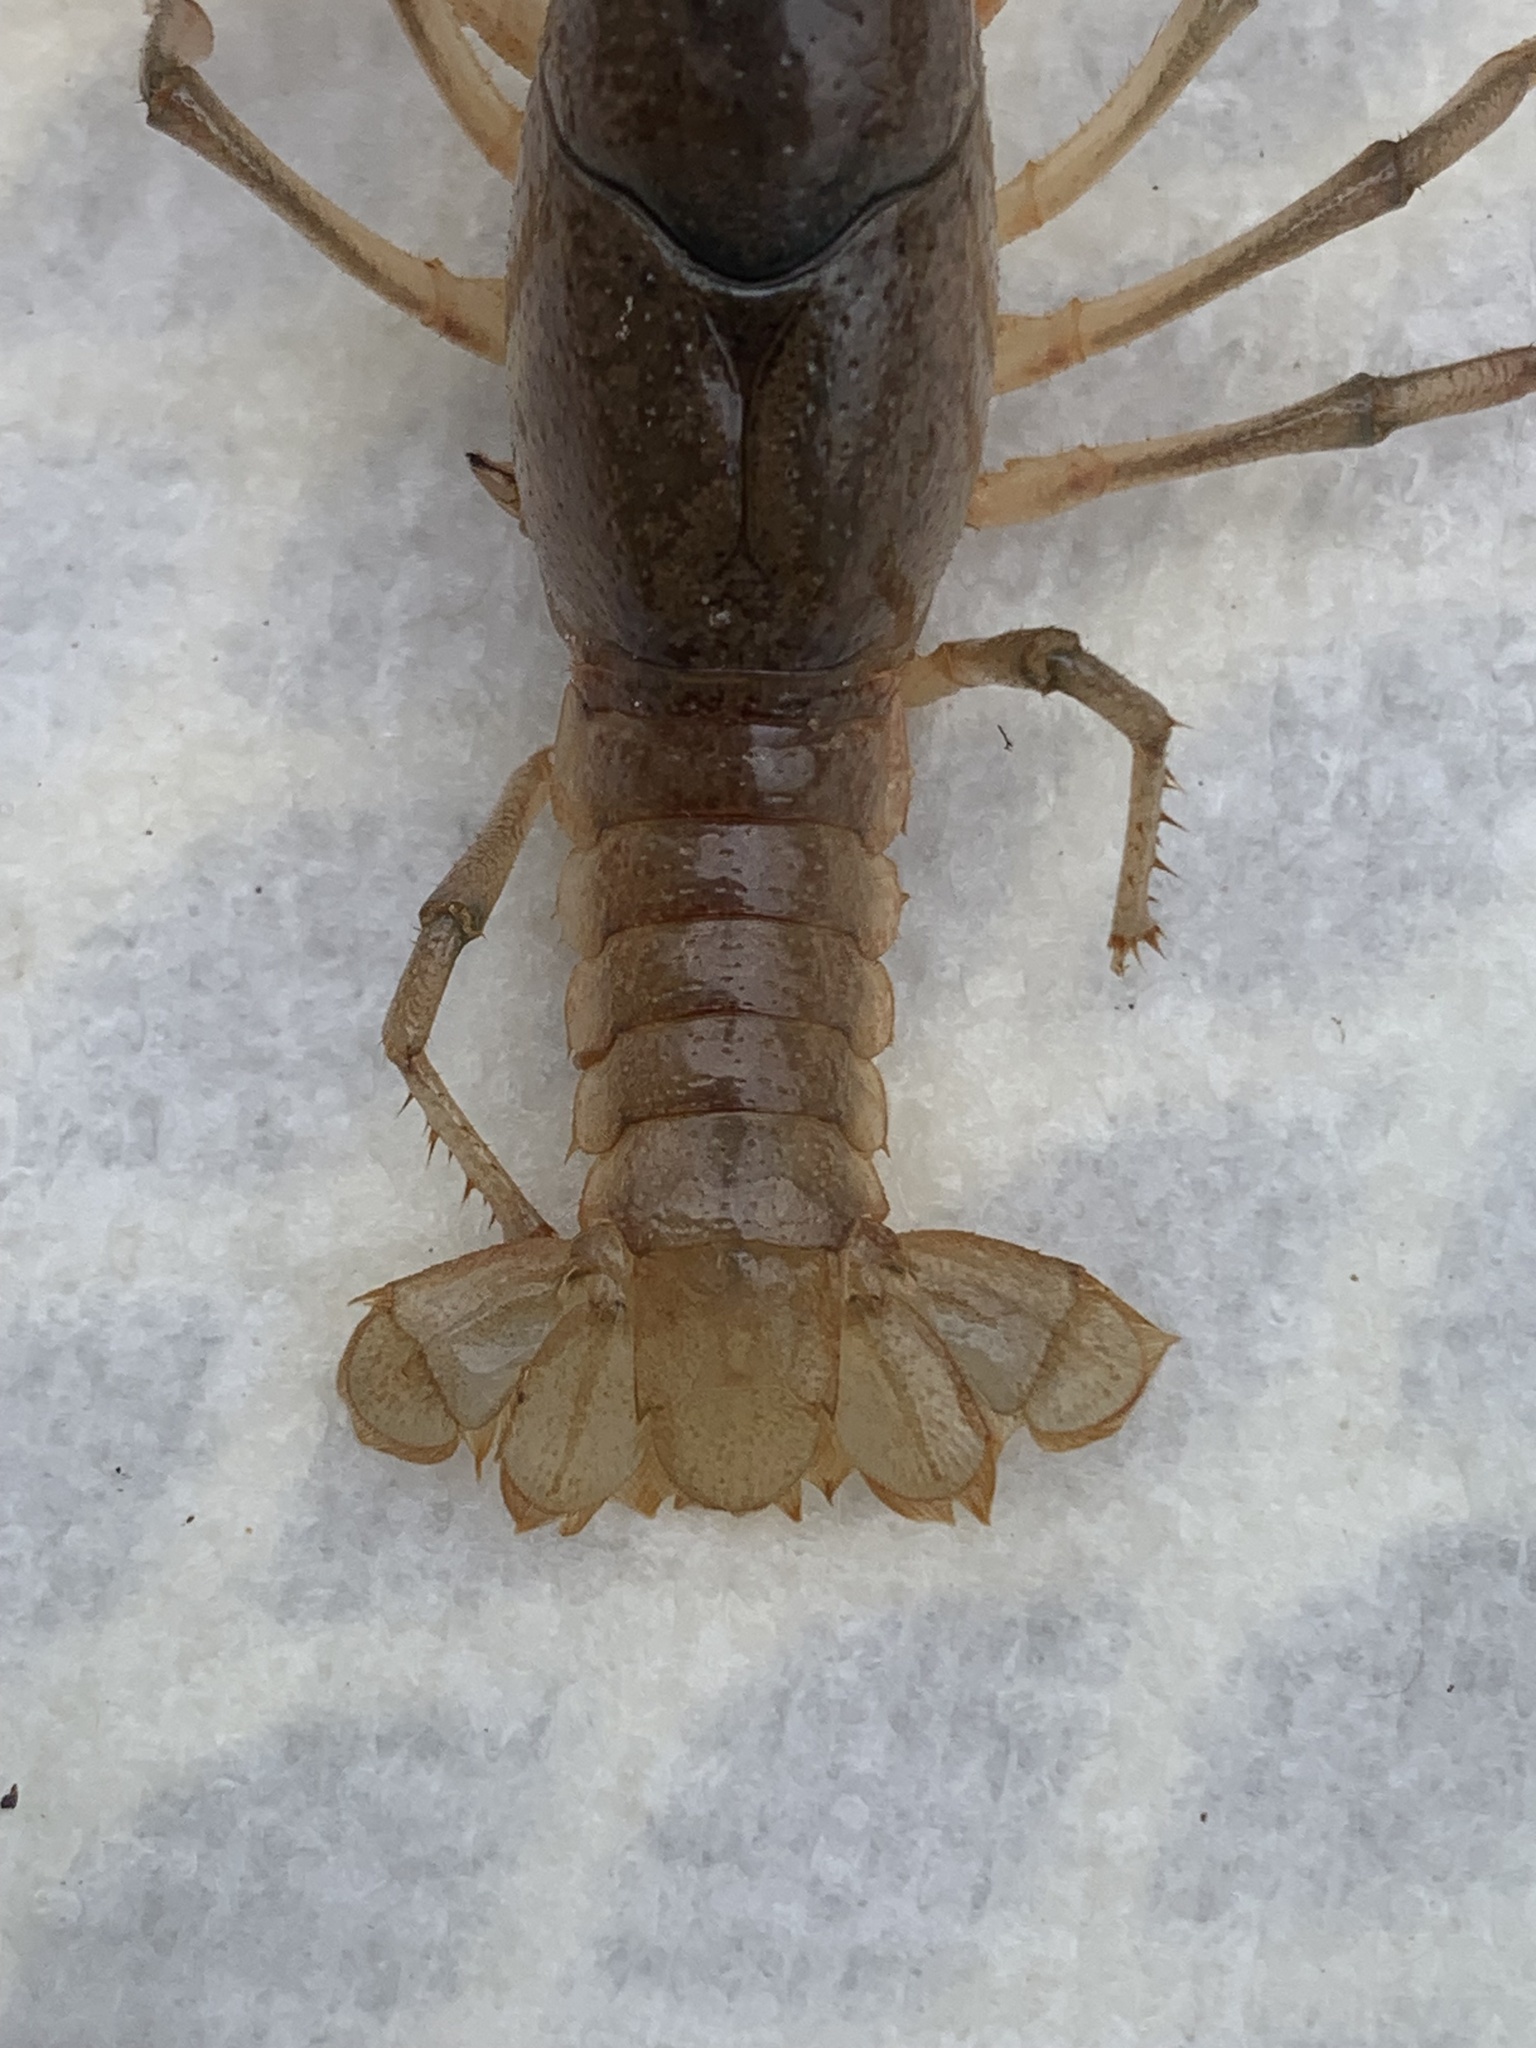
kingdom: Animalia
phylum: Arthropoda
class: Malacostraca
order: Decapoda
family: Cambaridae
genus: Fallicambarus
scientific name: Fallicambarus houstonensis
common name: Houston burrowing crayfish
